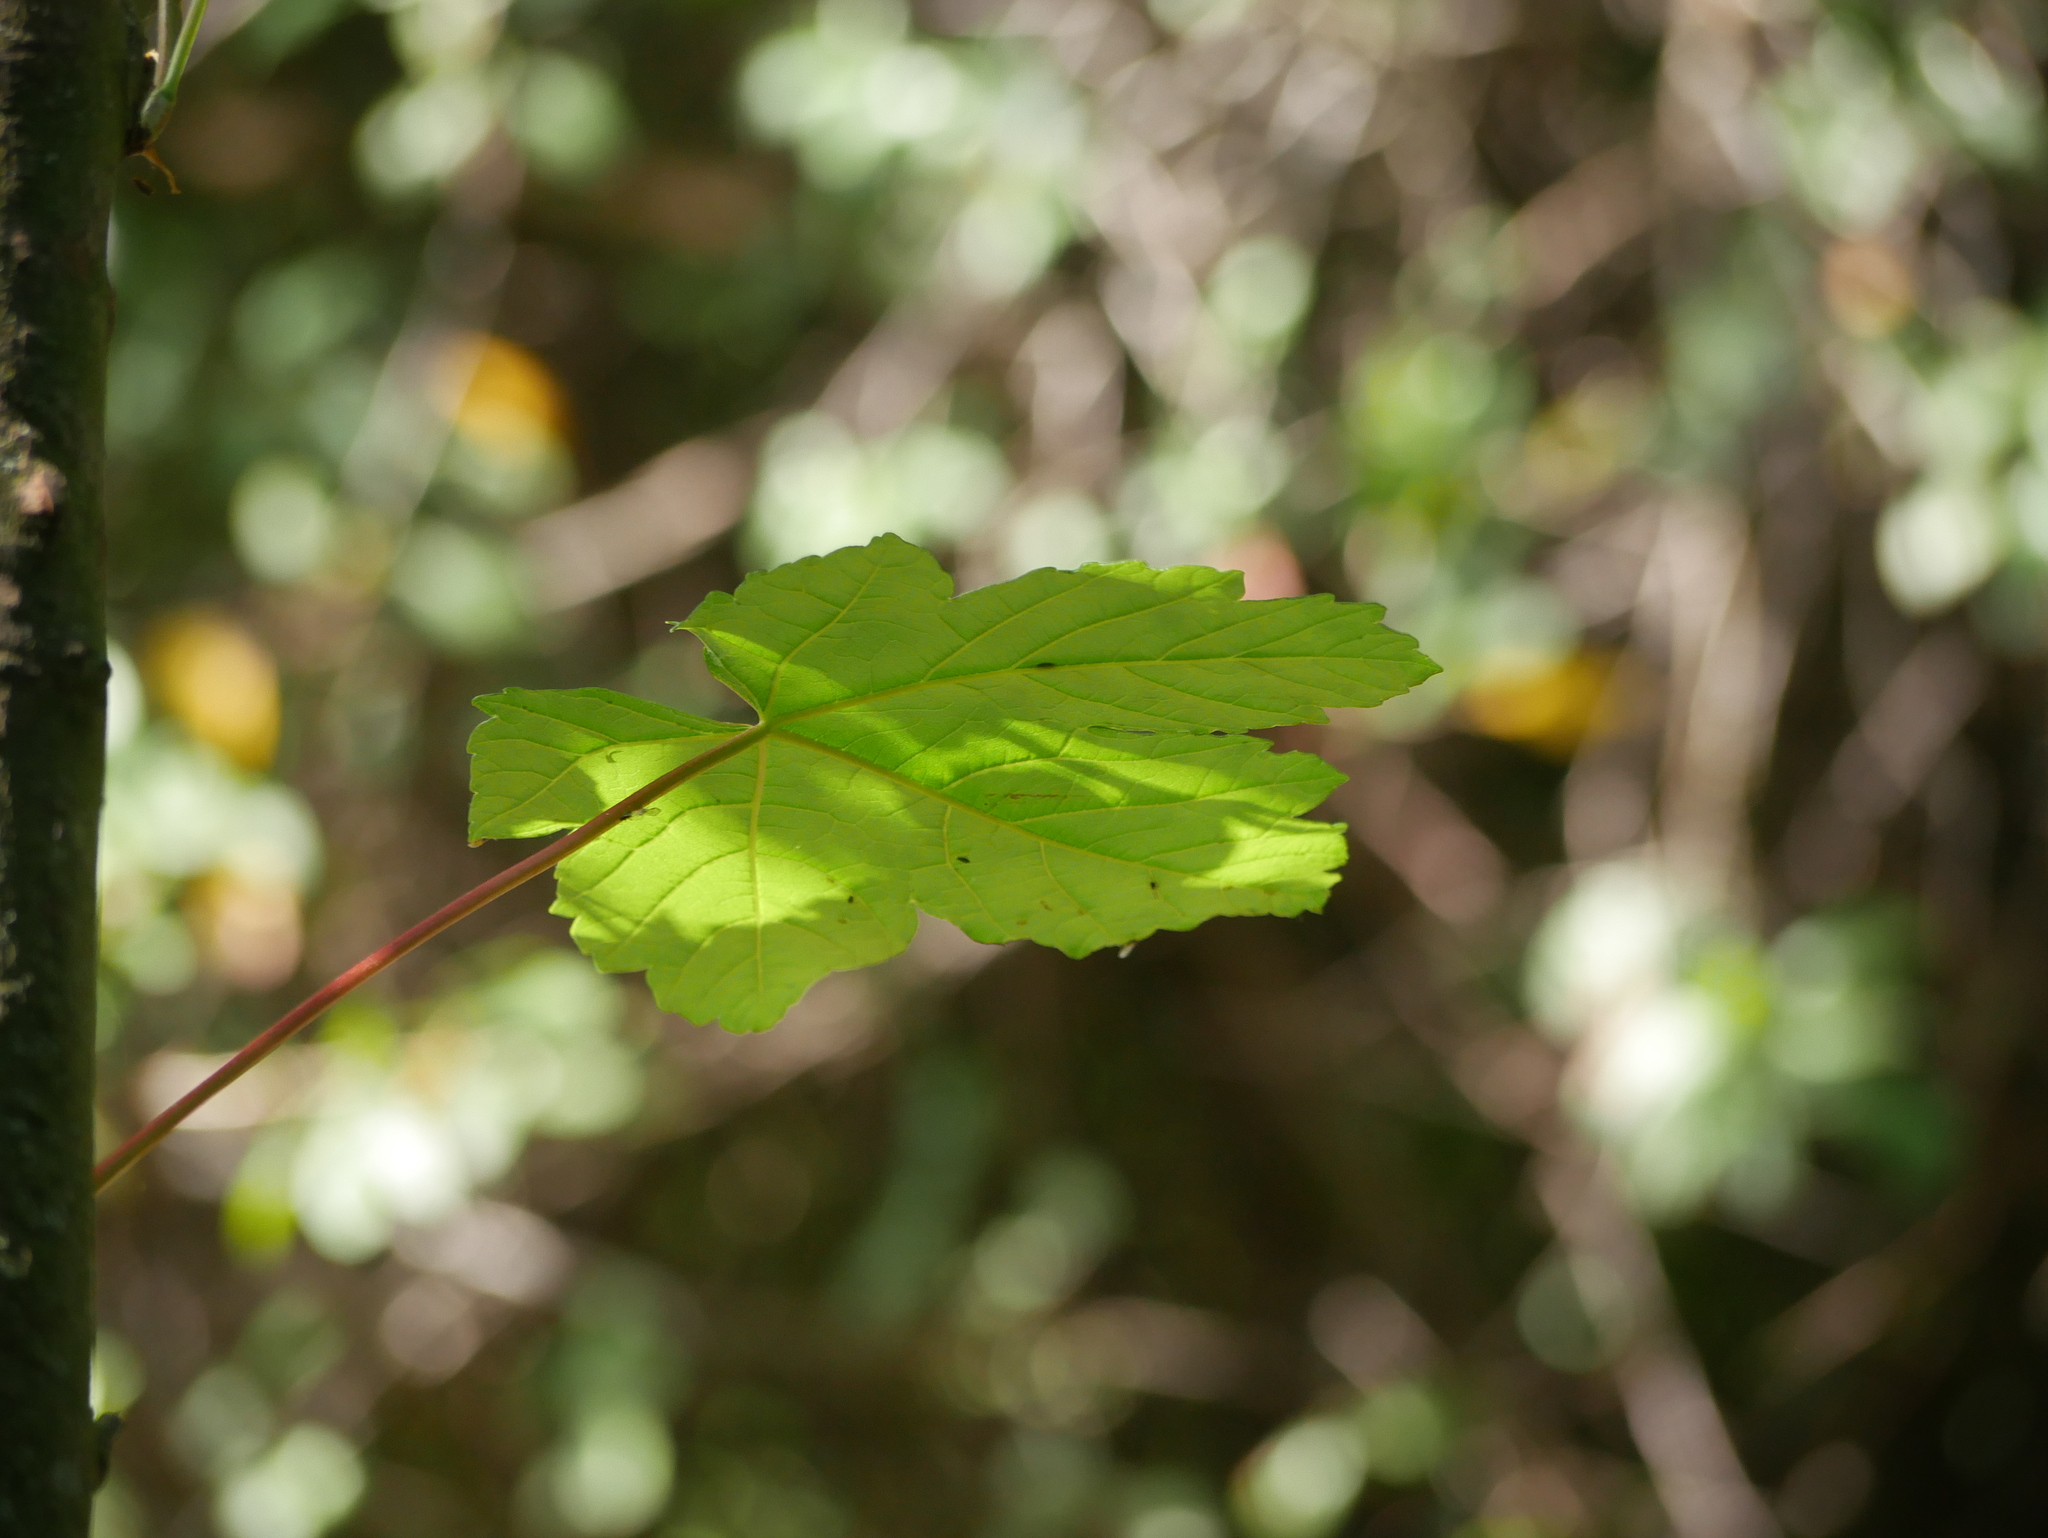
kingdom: Plantae
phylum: Tracheophyta
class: Magnoliopsida
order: Sapindales
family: Sapindaceae
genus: Acer
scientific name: Acer pseudoplatanus
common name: Sycamore
